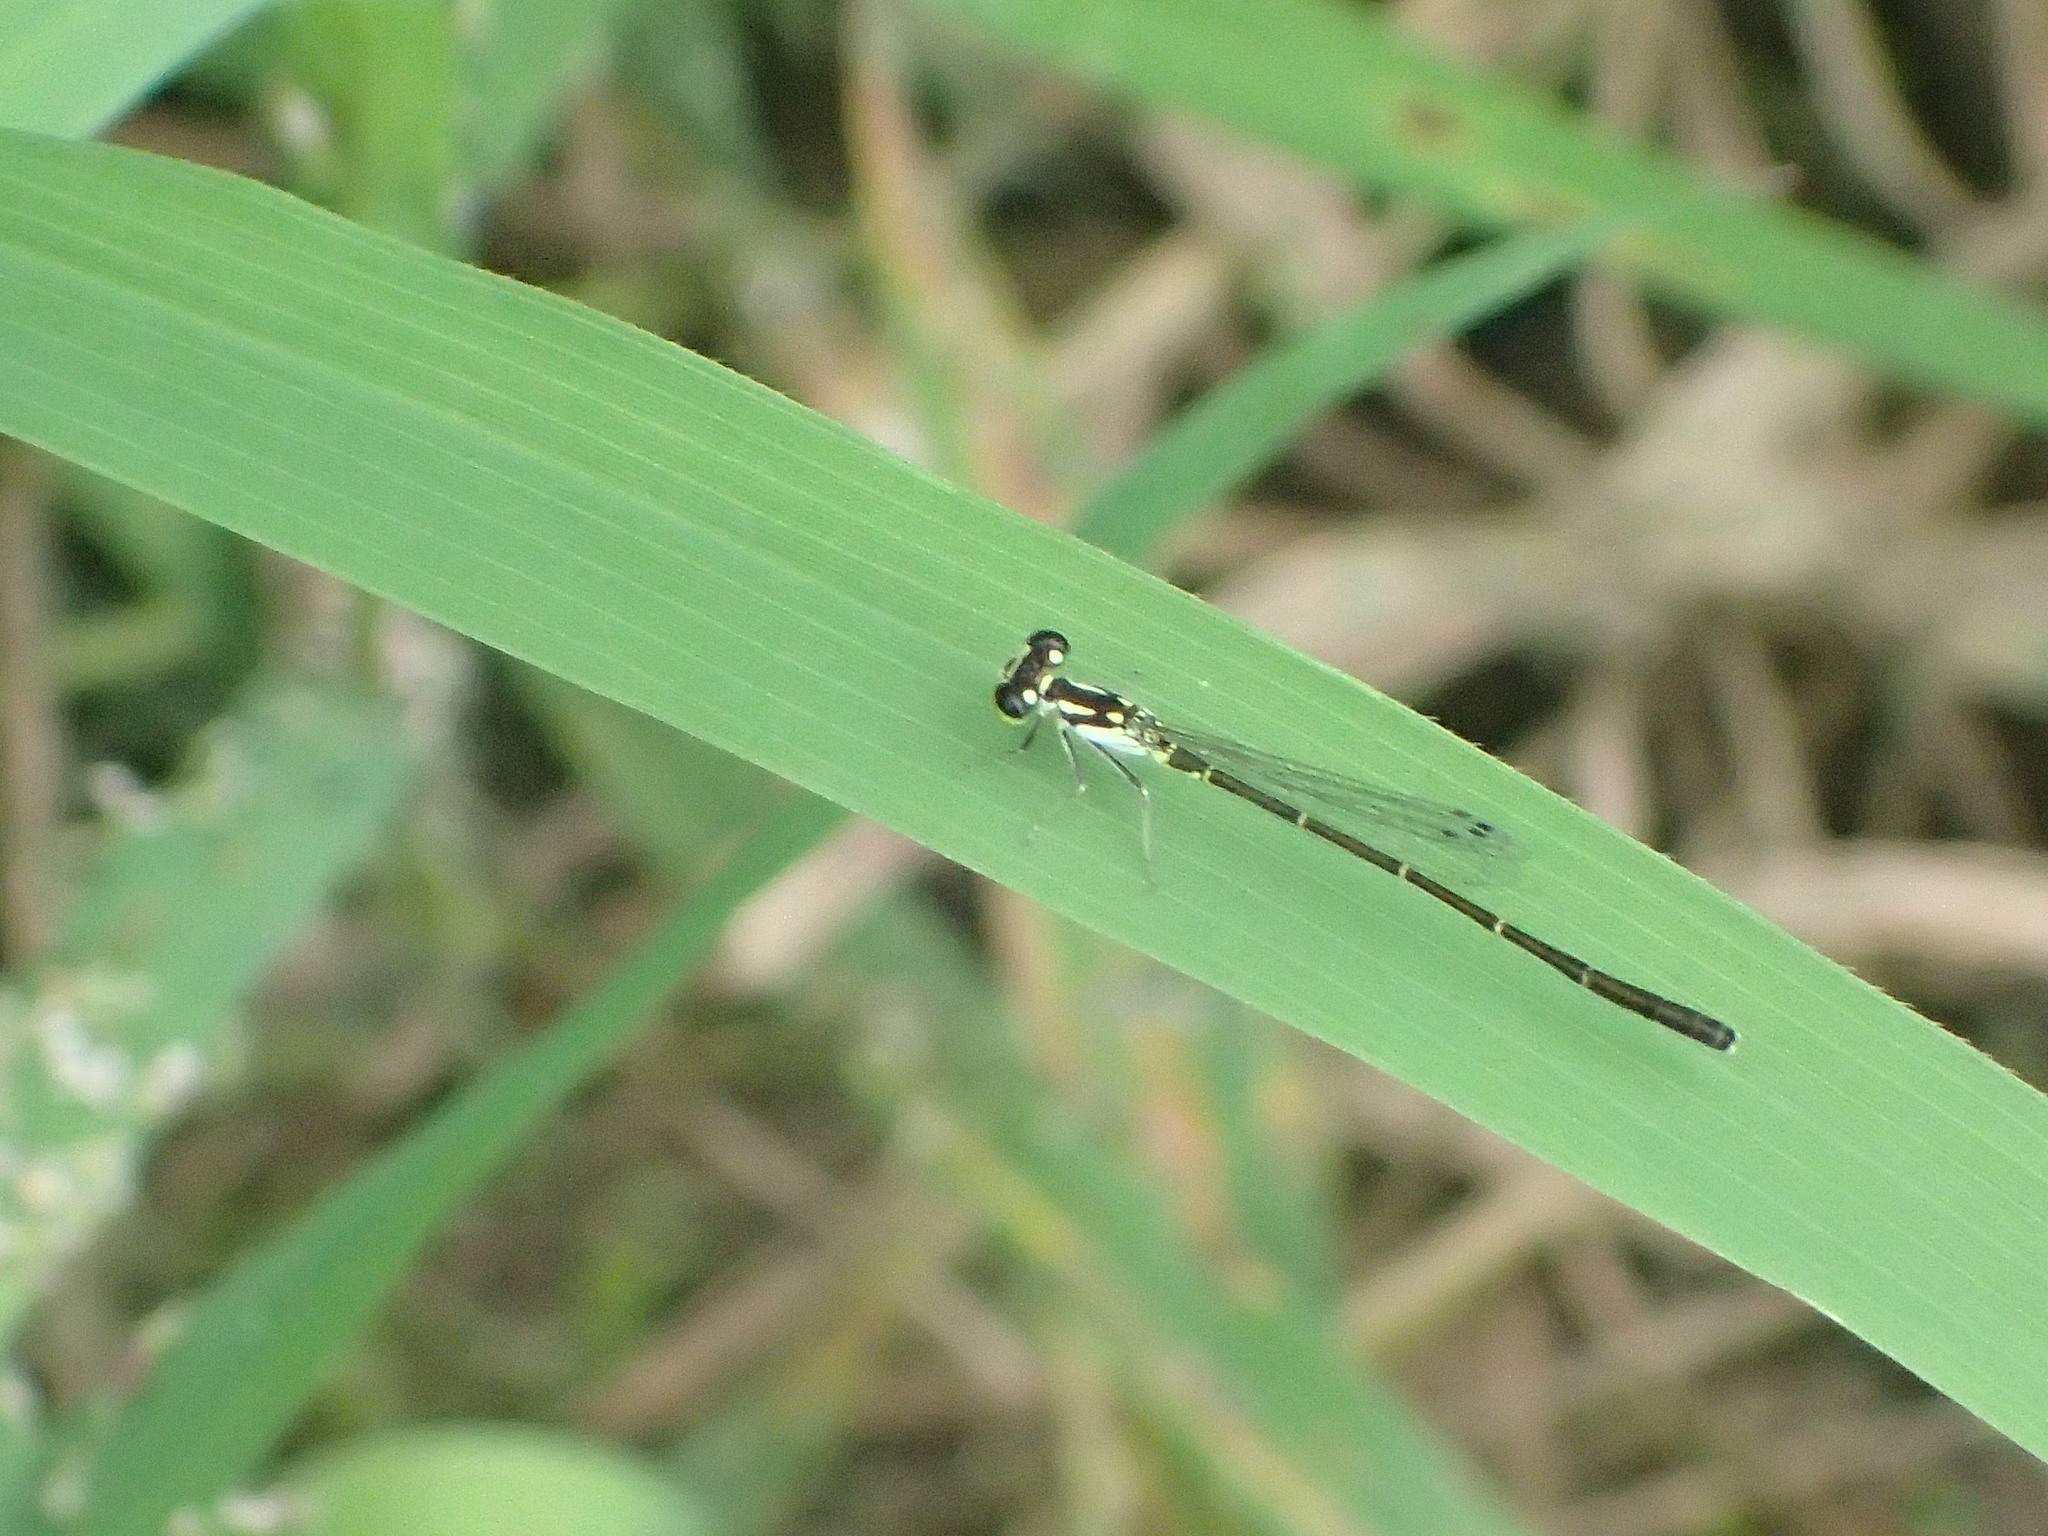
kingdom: Animalia
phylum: Arthropoda
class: Insecta
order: Odonata
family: Coenagrionidae
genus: Ischnura
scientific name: Ischnura posita
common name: Fragile forktail
